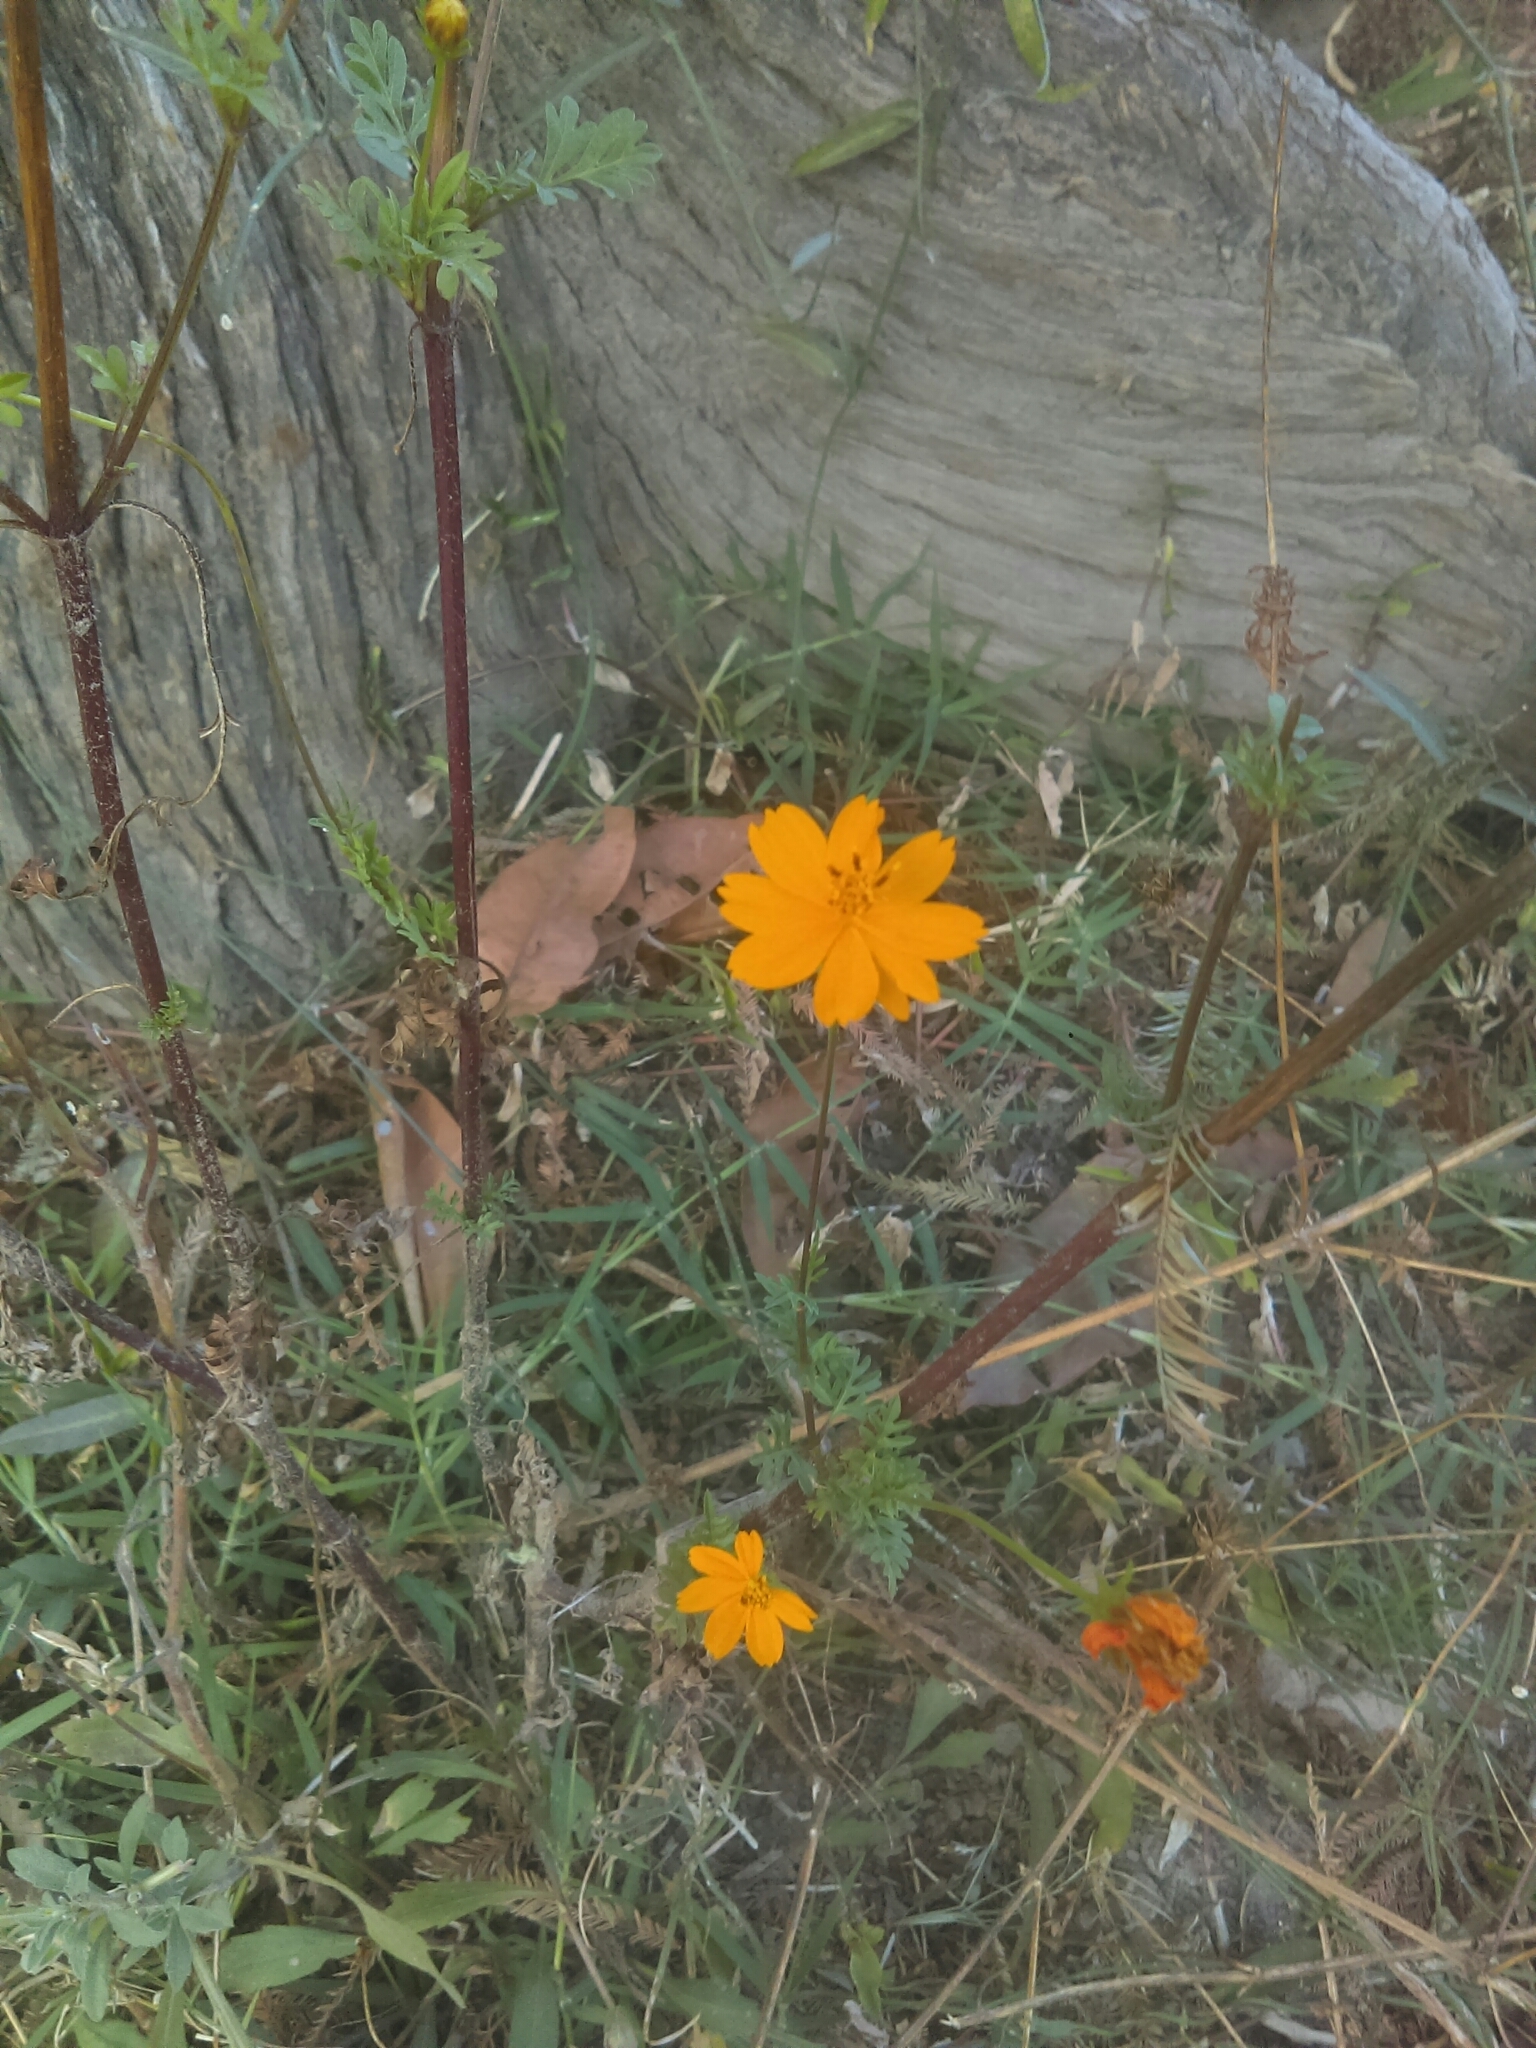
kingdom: Plantae
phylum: Tracheophyta
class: Magnoliopsida
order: Asterales
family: Asteraceae
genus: Cosmos
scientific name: Cosmos sulphureus
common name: Sulphur cosmos
